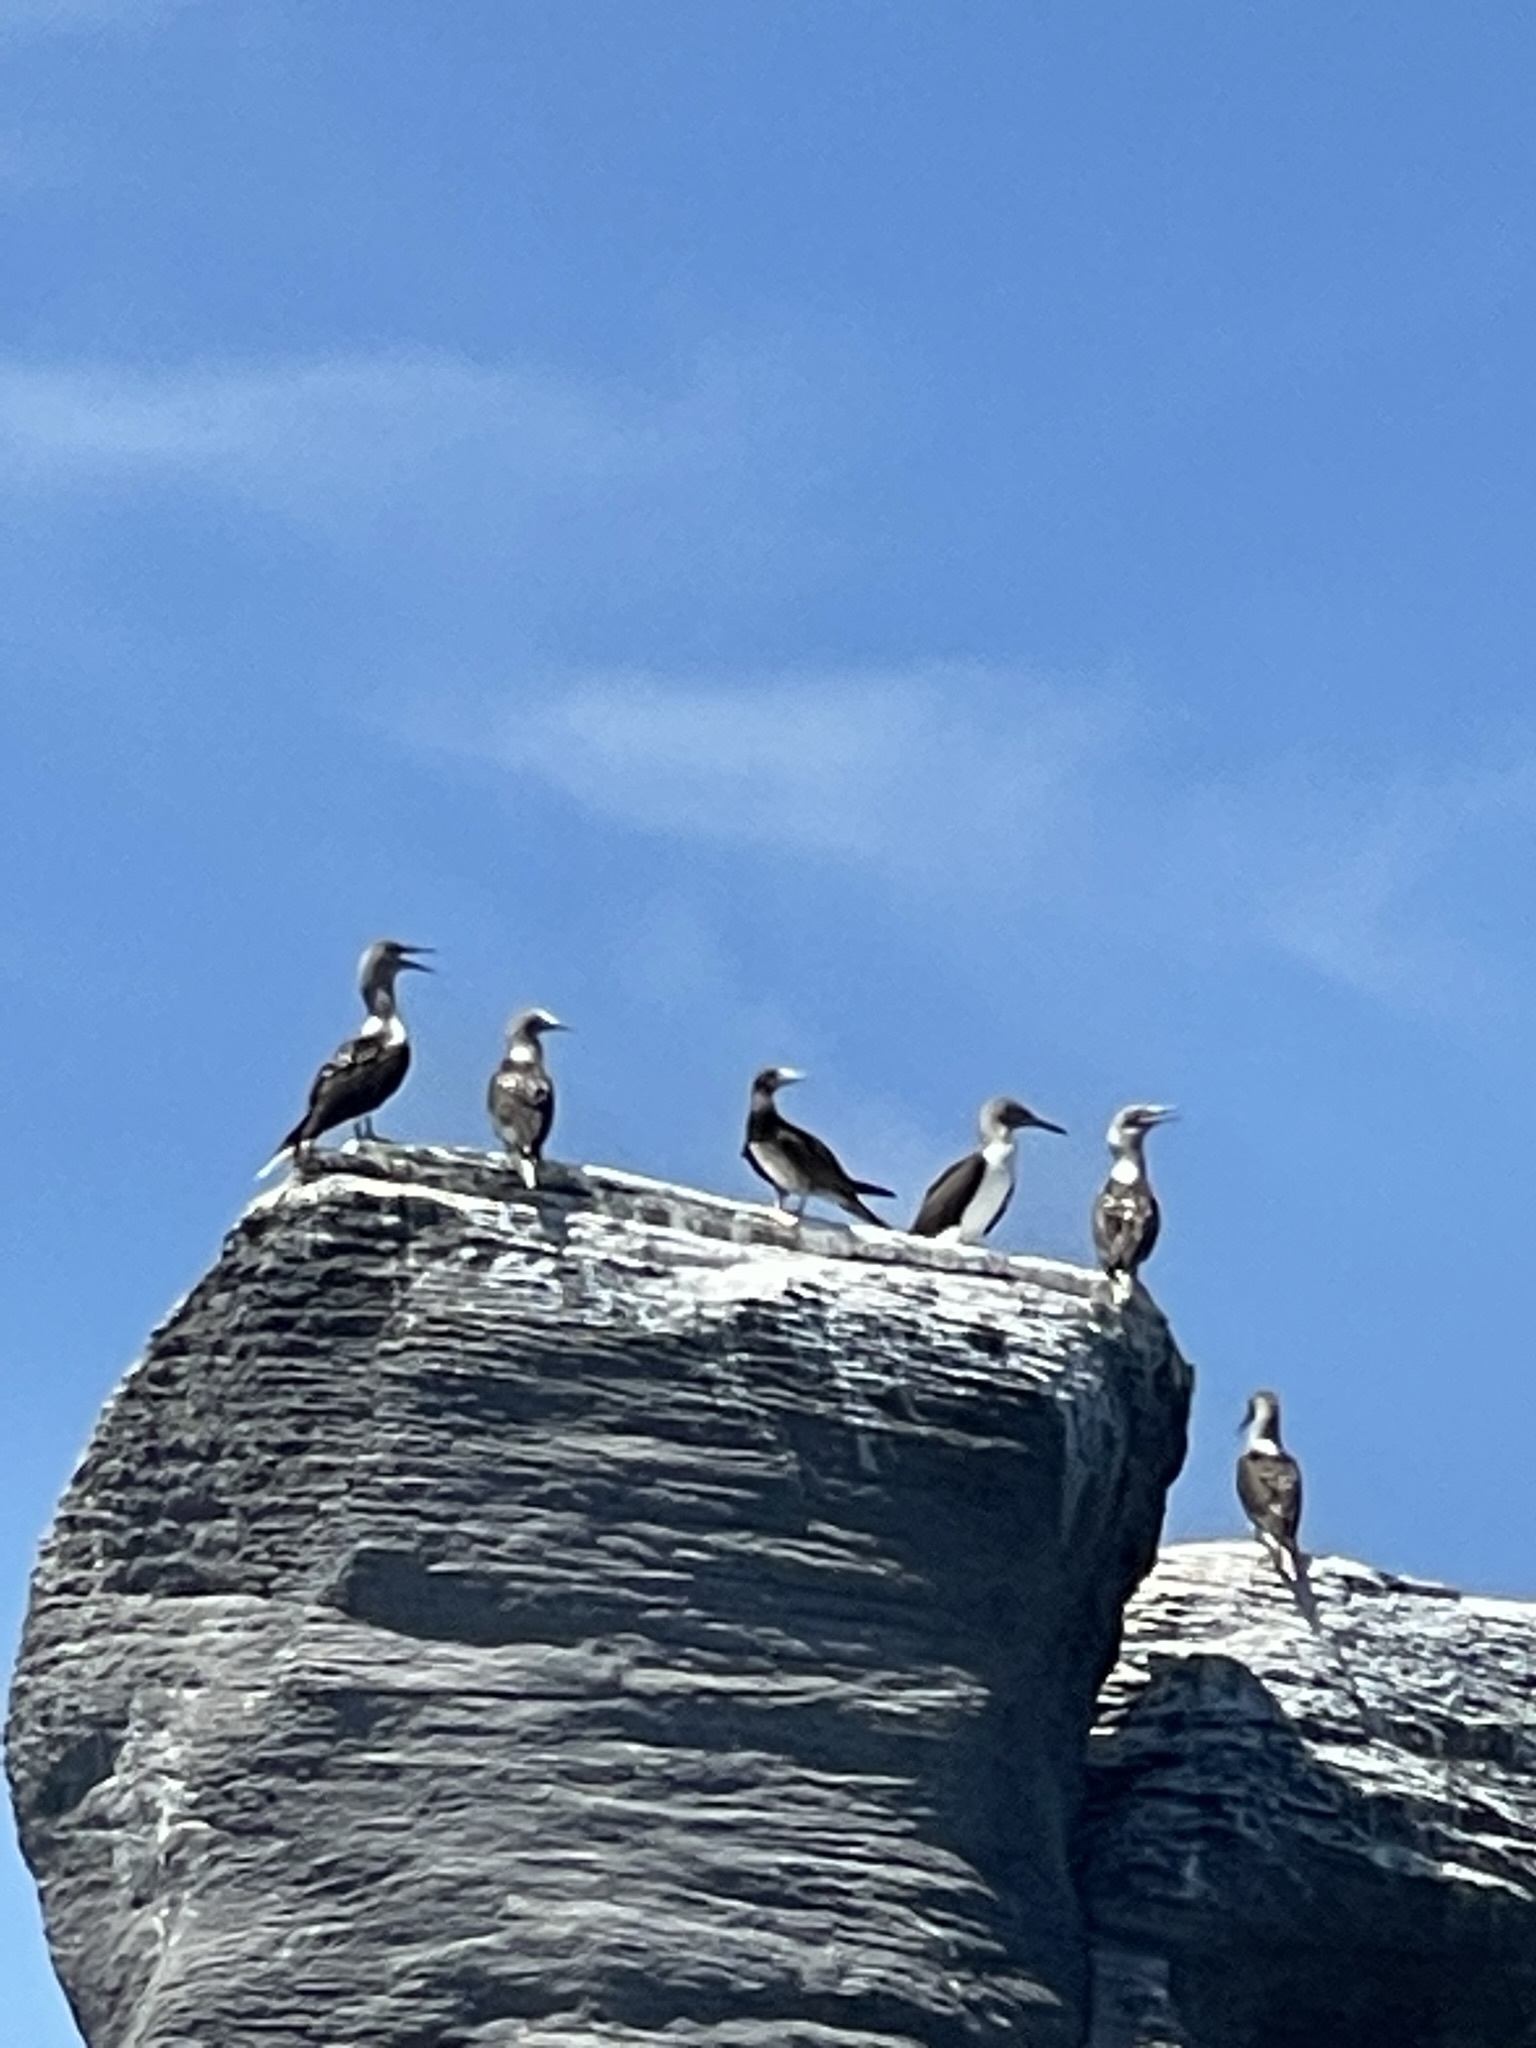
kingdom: Animalia
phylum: Chordata
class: Aves
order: Suliformes
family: Sulidae
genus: Sula
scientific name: Sula nebouxii
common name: Blue-footed booby
